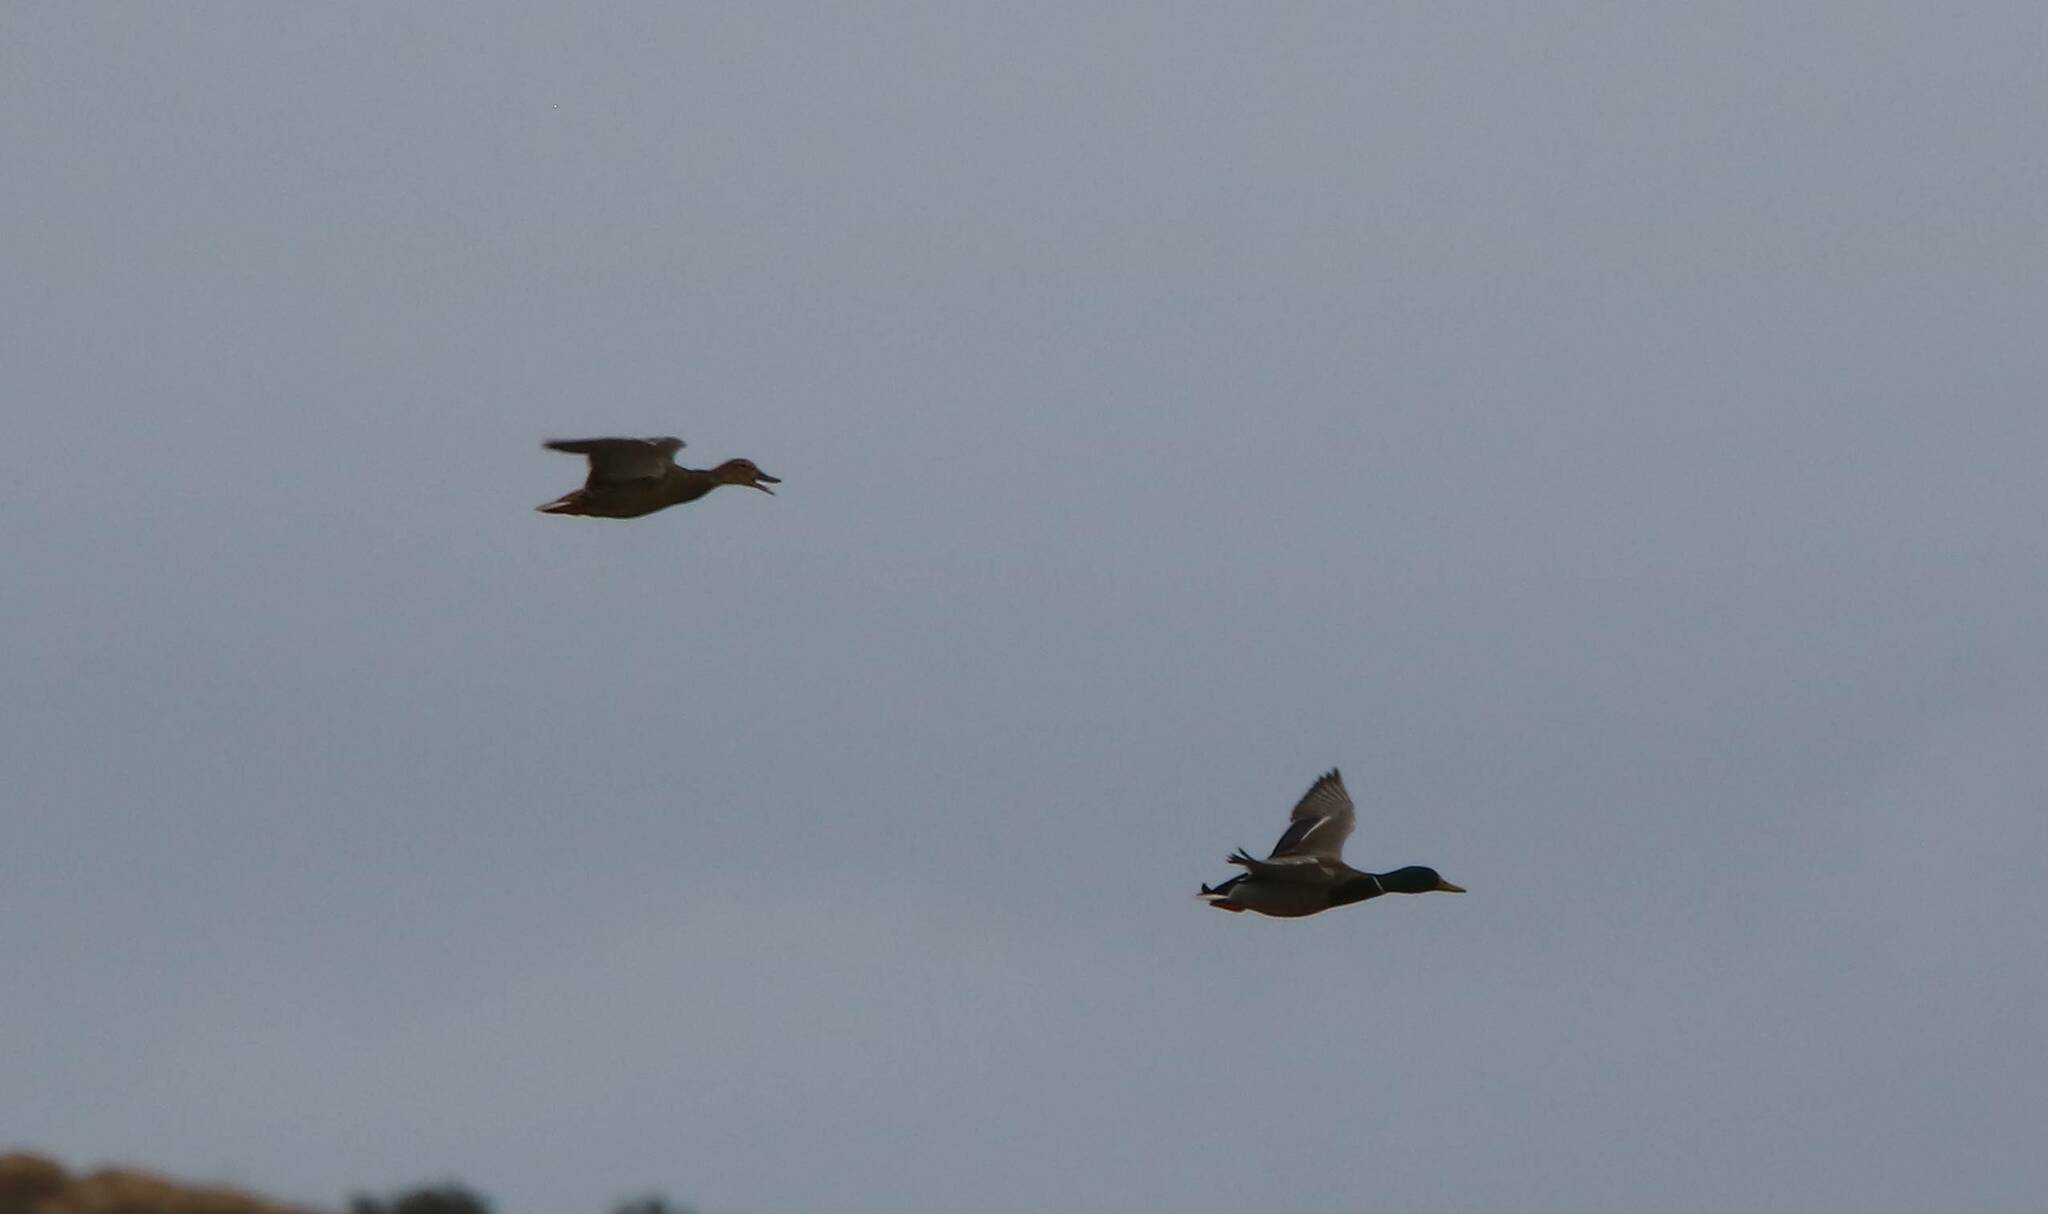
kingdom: Animalia
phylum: Chordata
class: Aves
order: Anseriformes
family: Anatidae
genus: Anas
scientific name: Anas platyrhynchos
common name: Mallard
